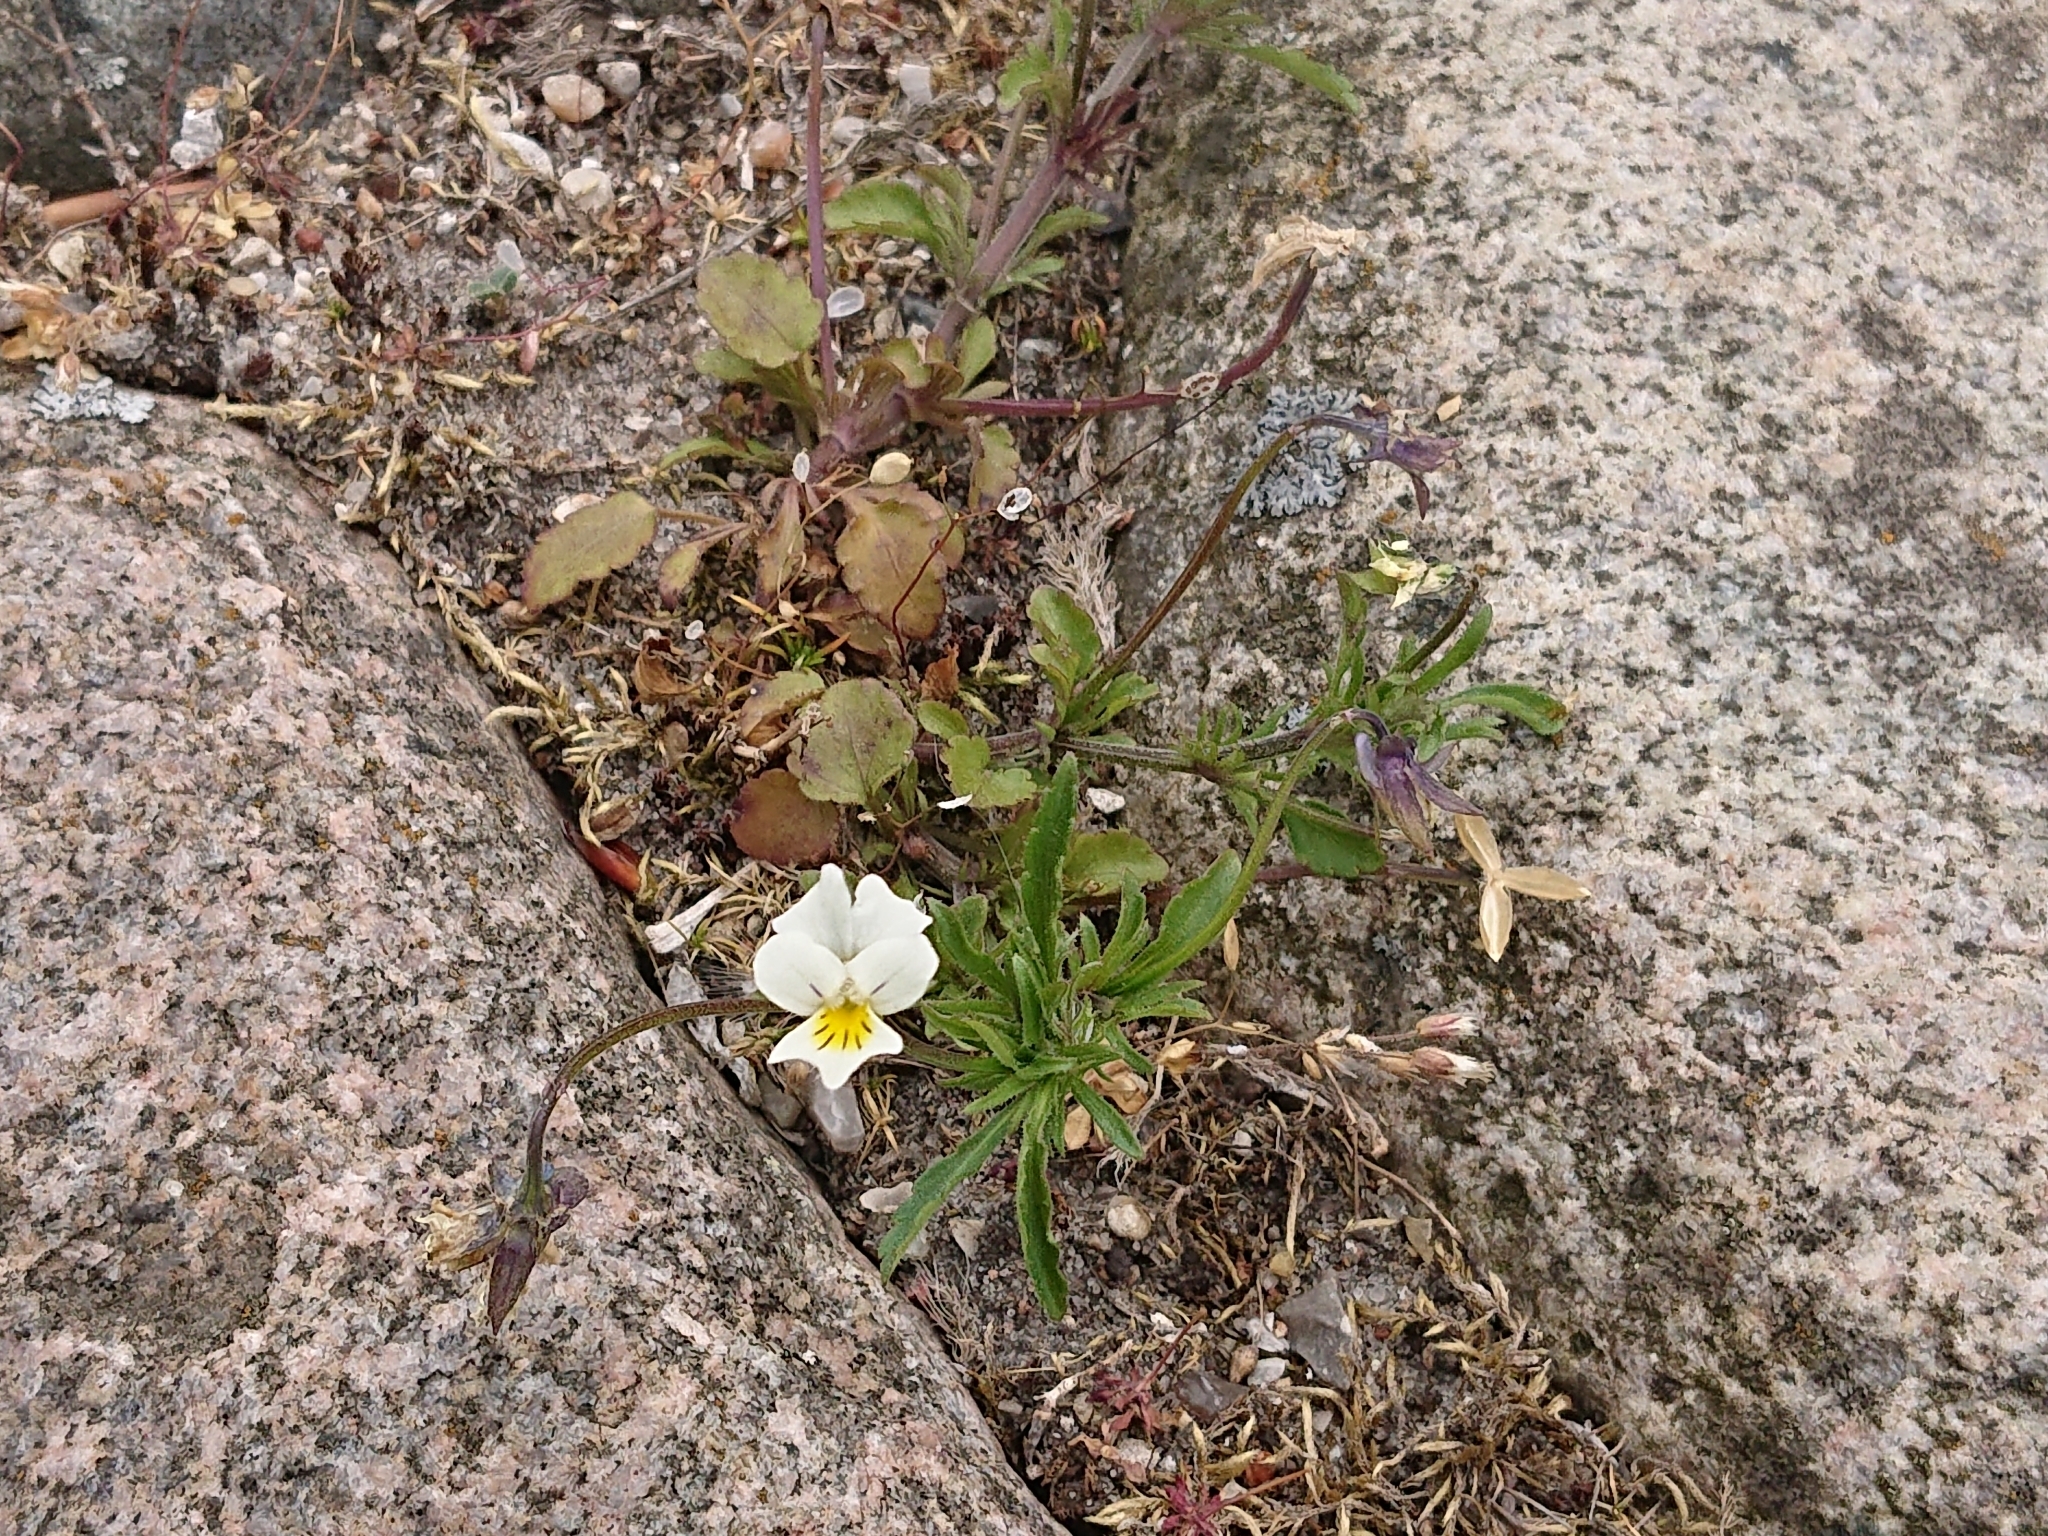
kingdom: Plantae
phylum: Tracheophyta
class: Magnoliopsida
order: Malpighiales
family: Violaceae
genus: Viola
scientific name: Viola arvensis
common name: Field pansy
